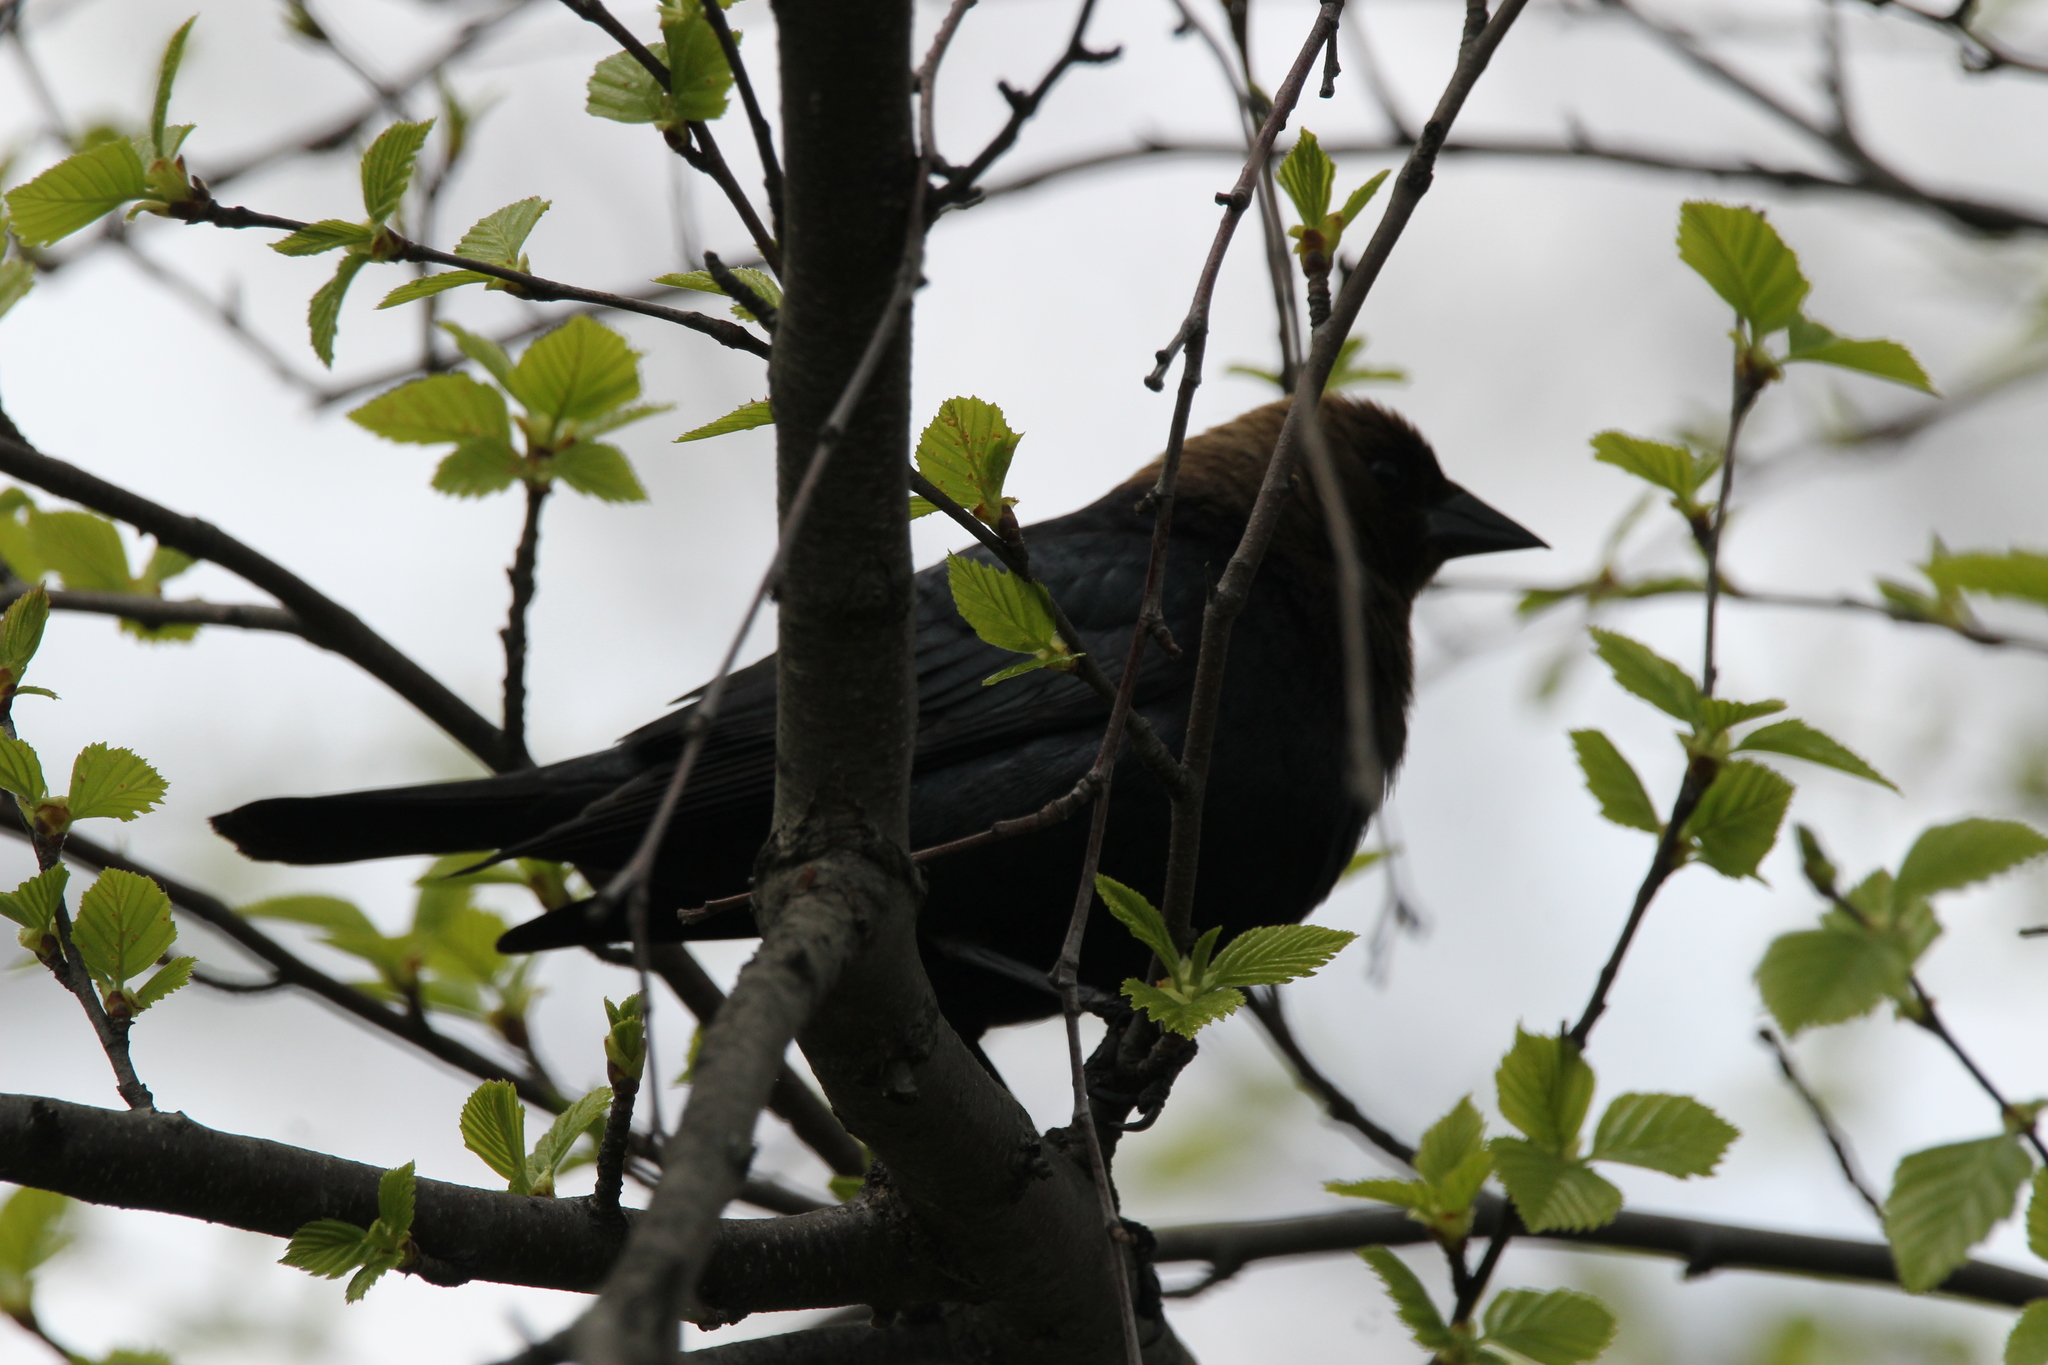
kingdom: Animalia
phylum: Chordata
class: Aves
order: Passeriformes
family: Icteridae
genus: Molothrus
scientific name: Molothrus ater
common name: Brown-headed cowbird
